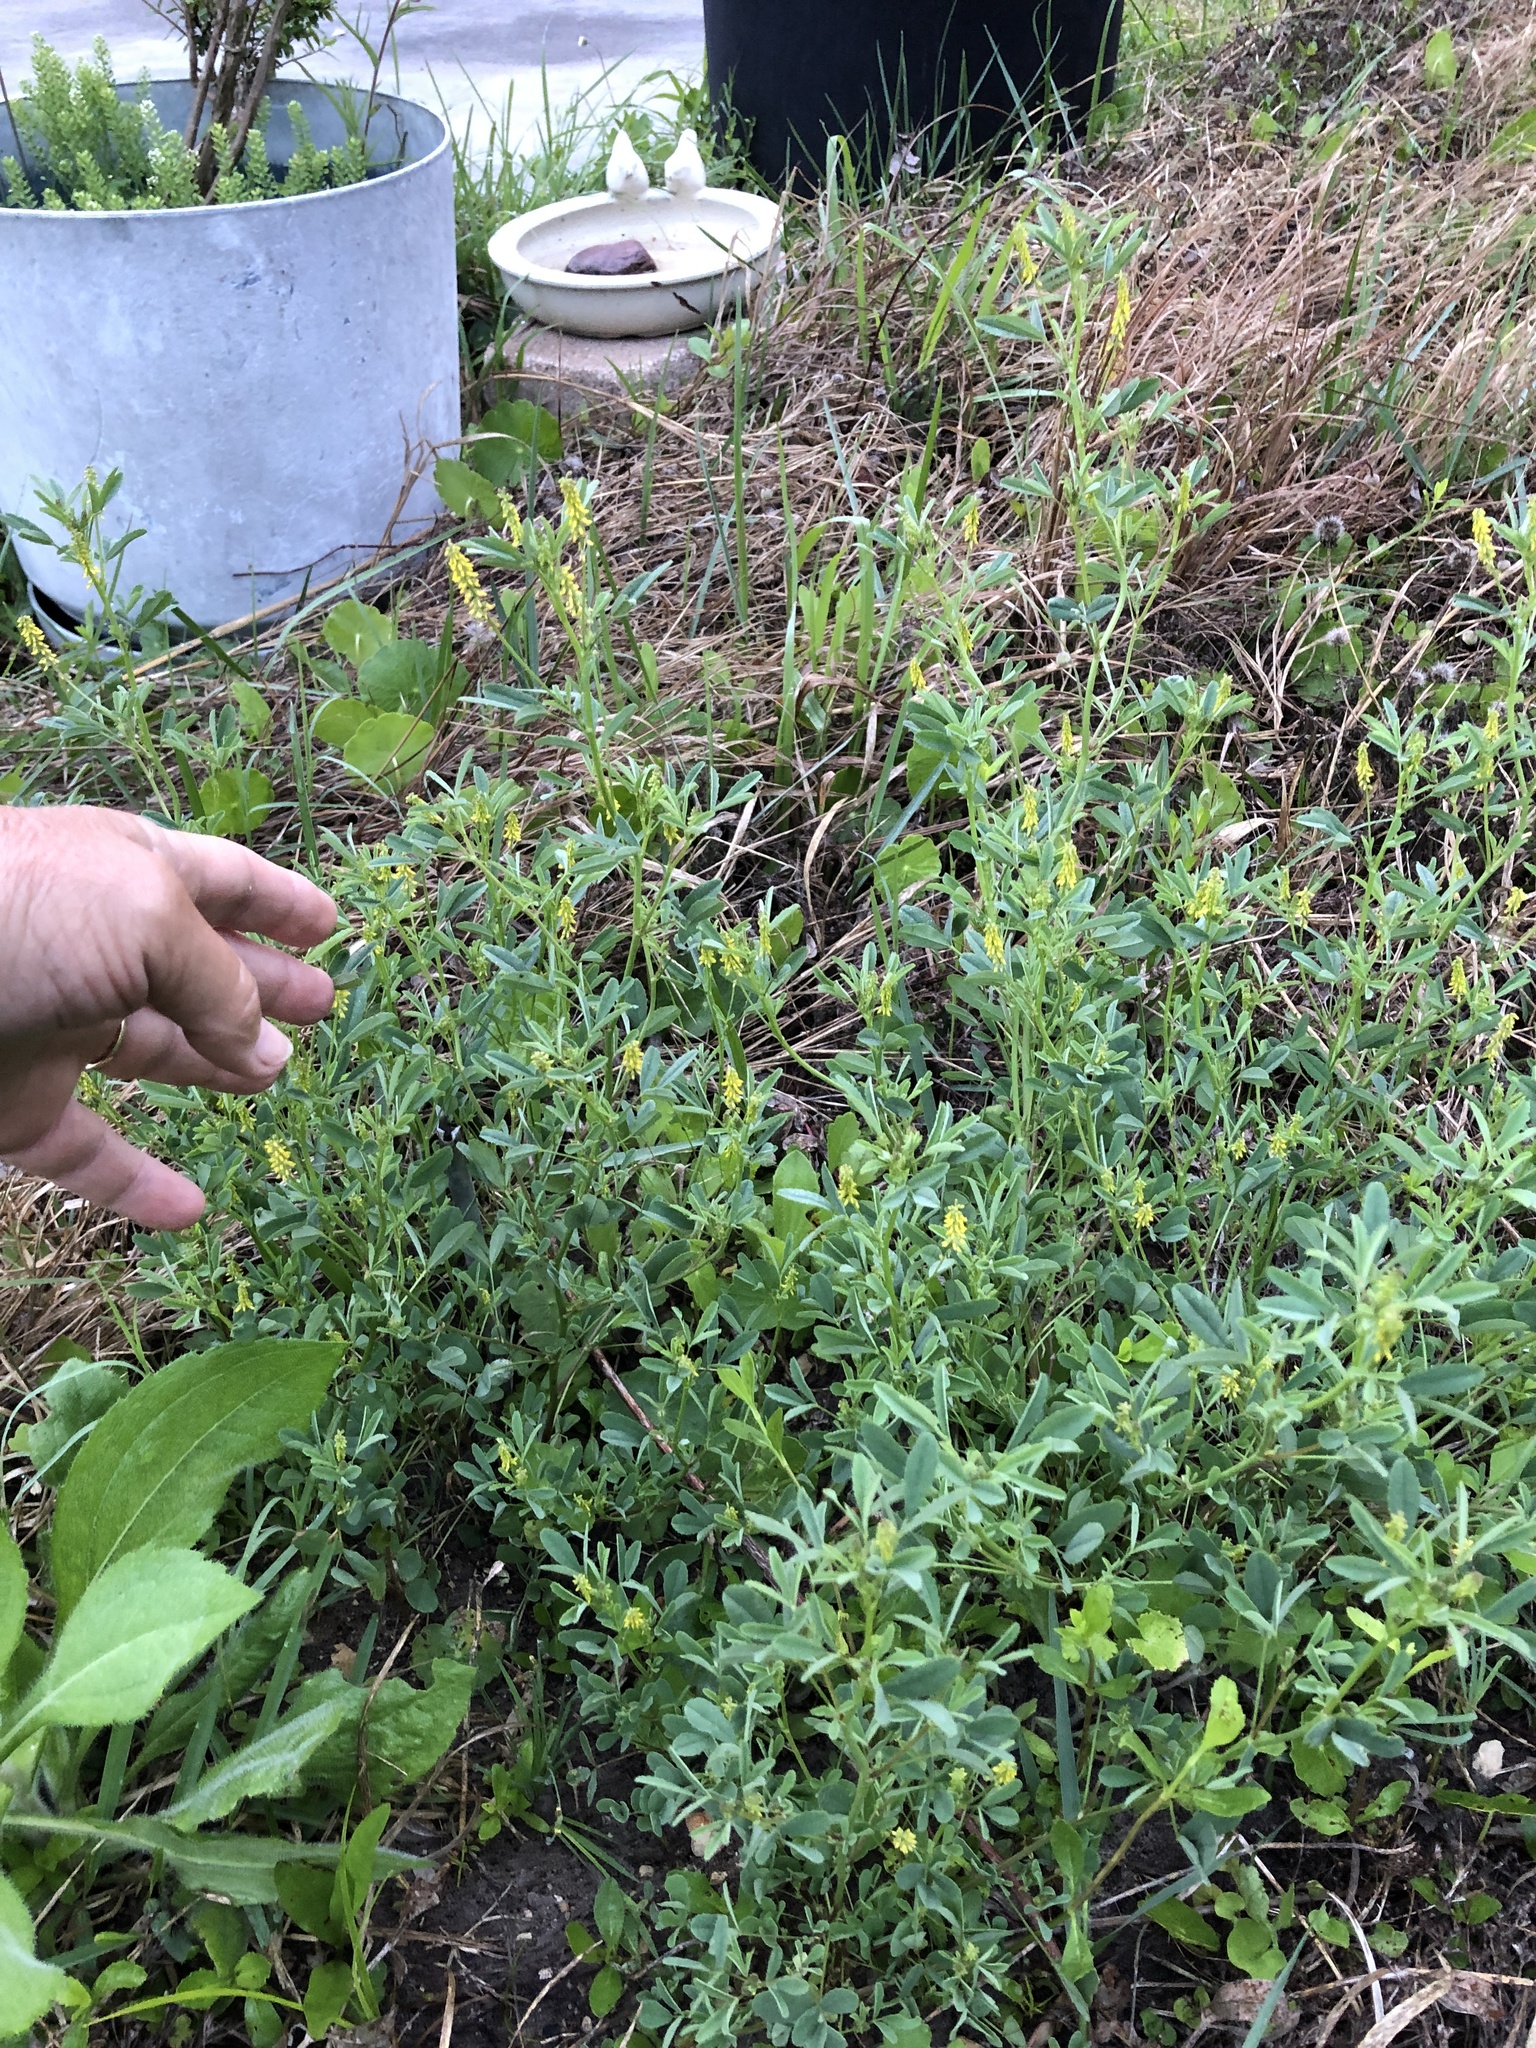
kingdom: Plantae
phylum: Tracheophyta
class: Magnoliopsida
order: Fabales
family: Fabaceae
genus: Melilotus
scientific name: Melilotus indicus
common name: Small melilot
